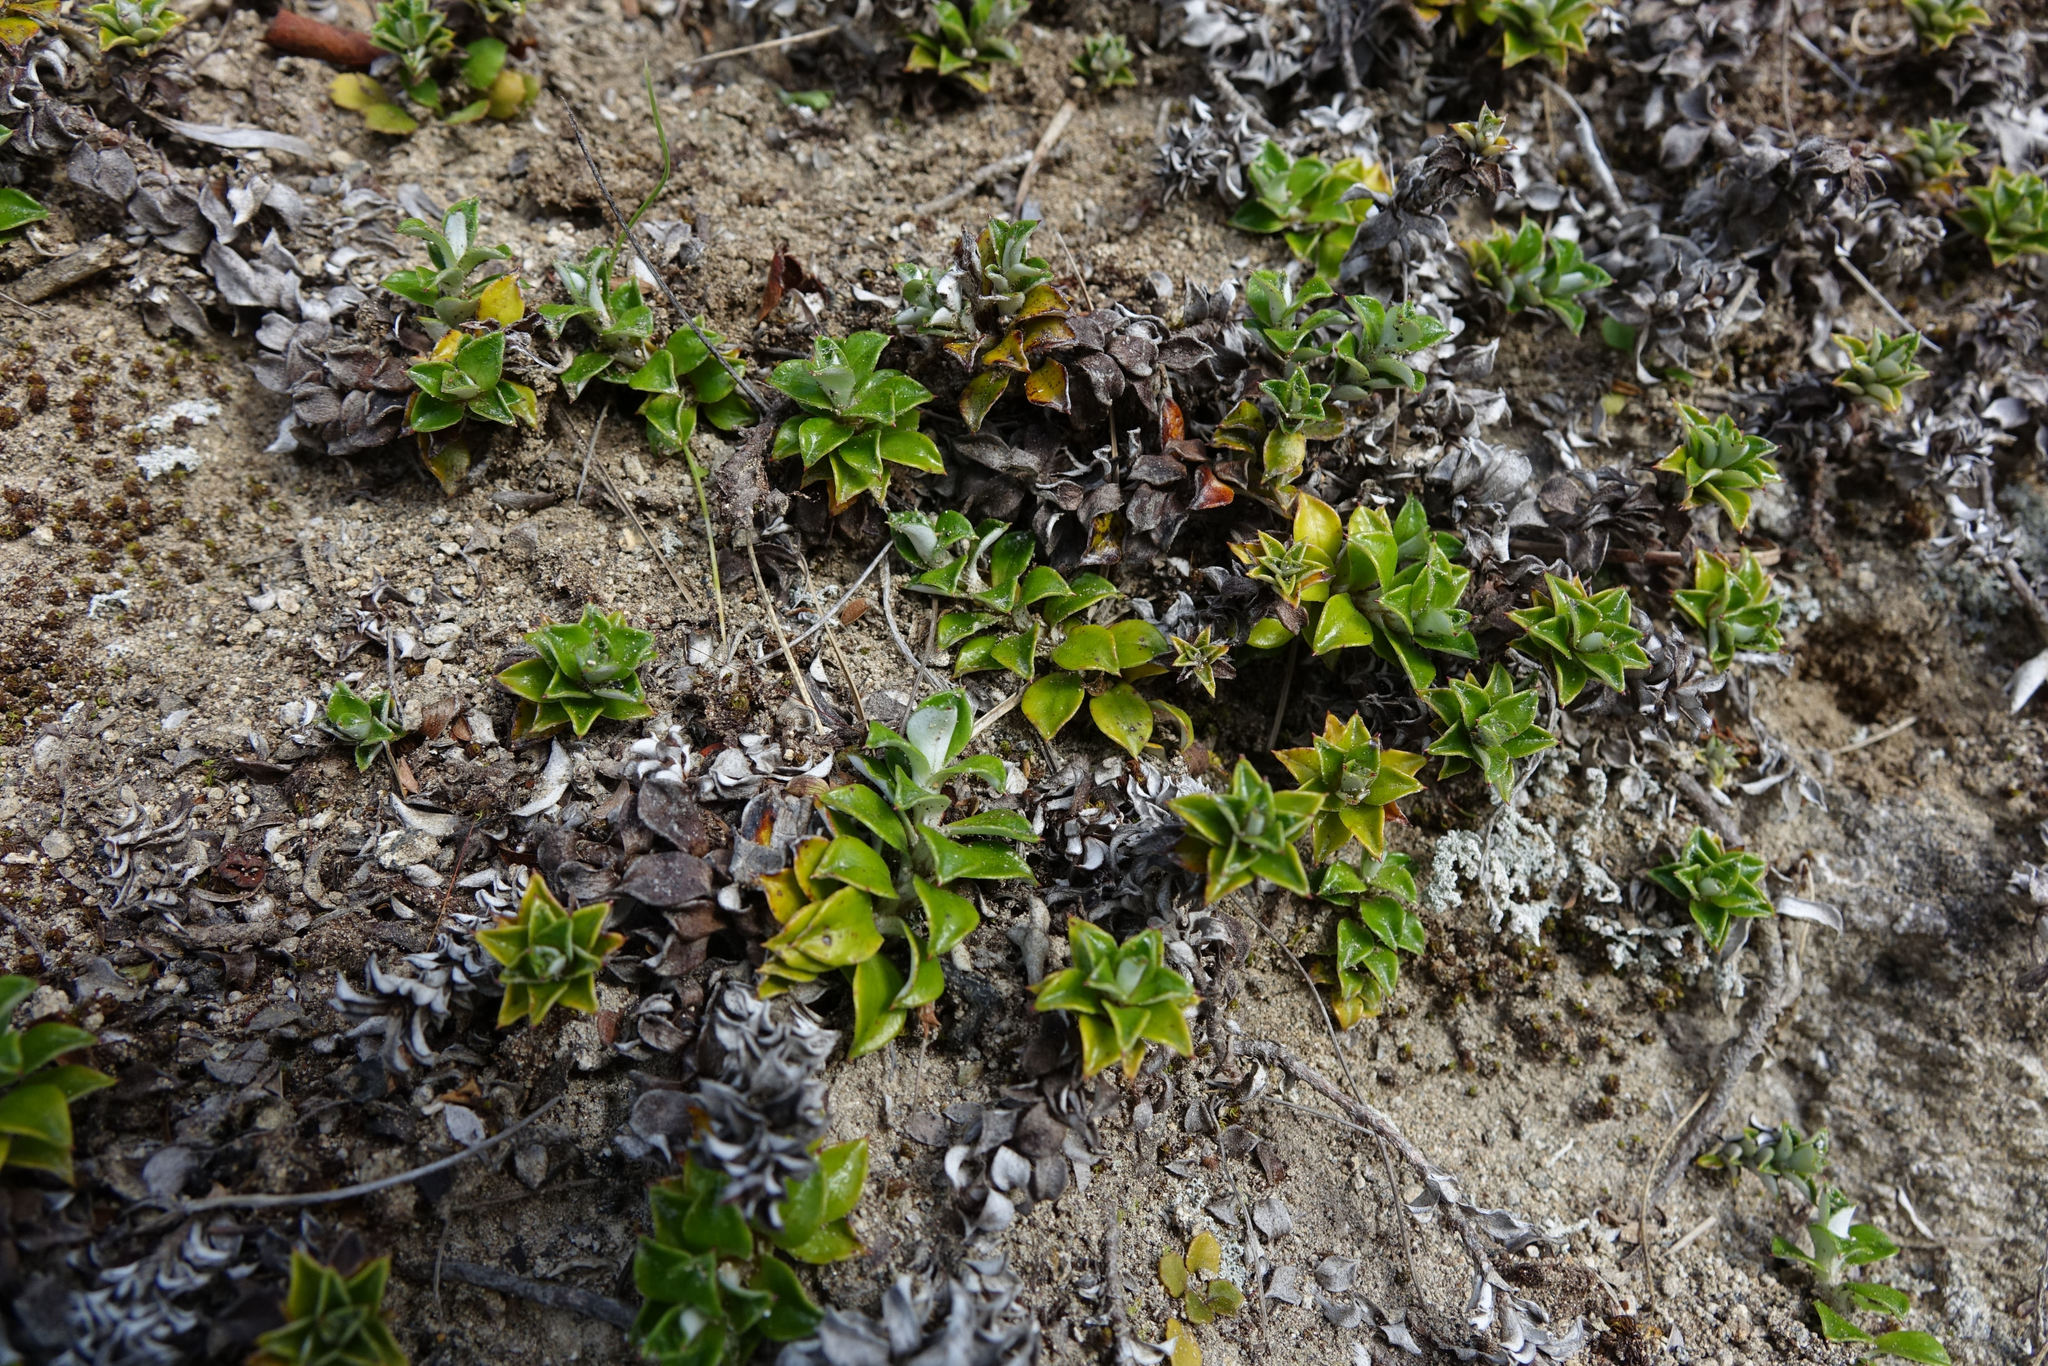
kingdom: Plantae
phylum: Tracheophyta
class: Magnoliopsida
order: Asterales
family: Asteraceae
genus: Anaphalioides
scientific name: Anaphalioides hookeri
